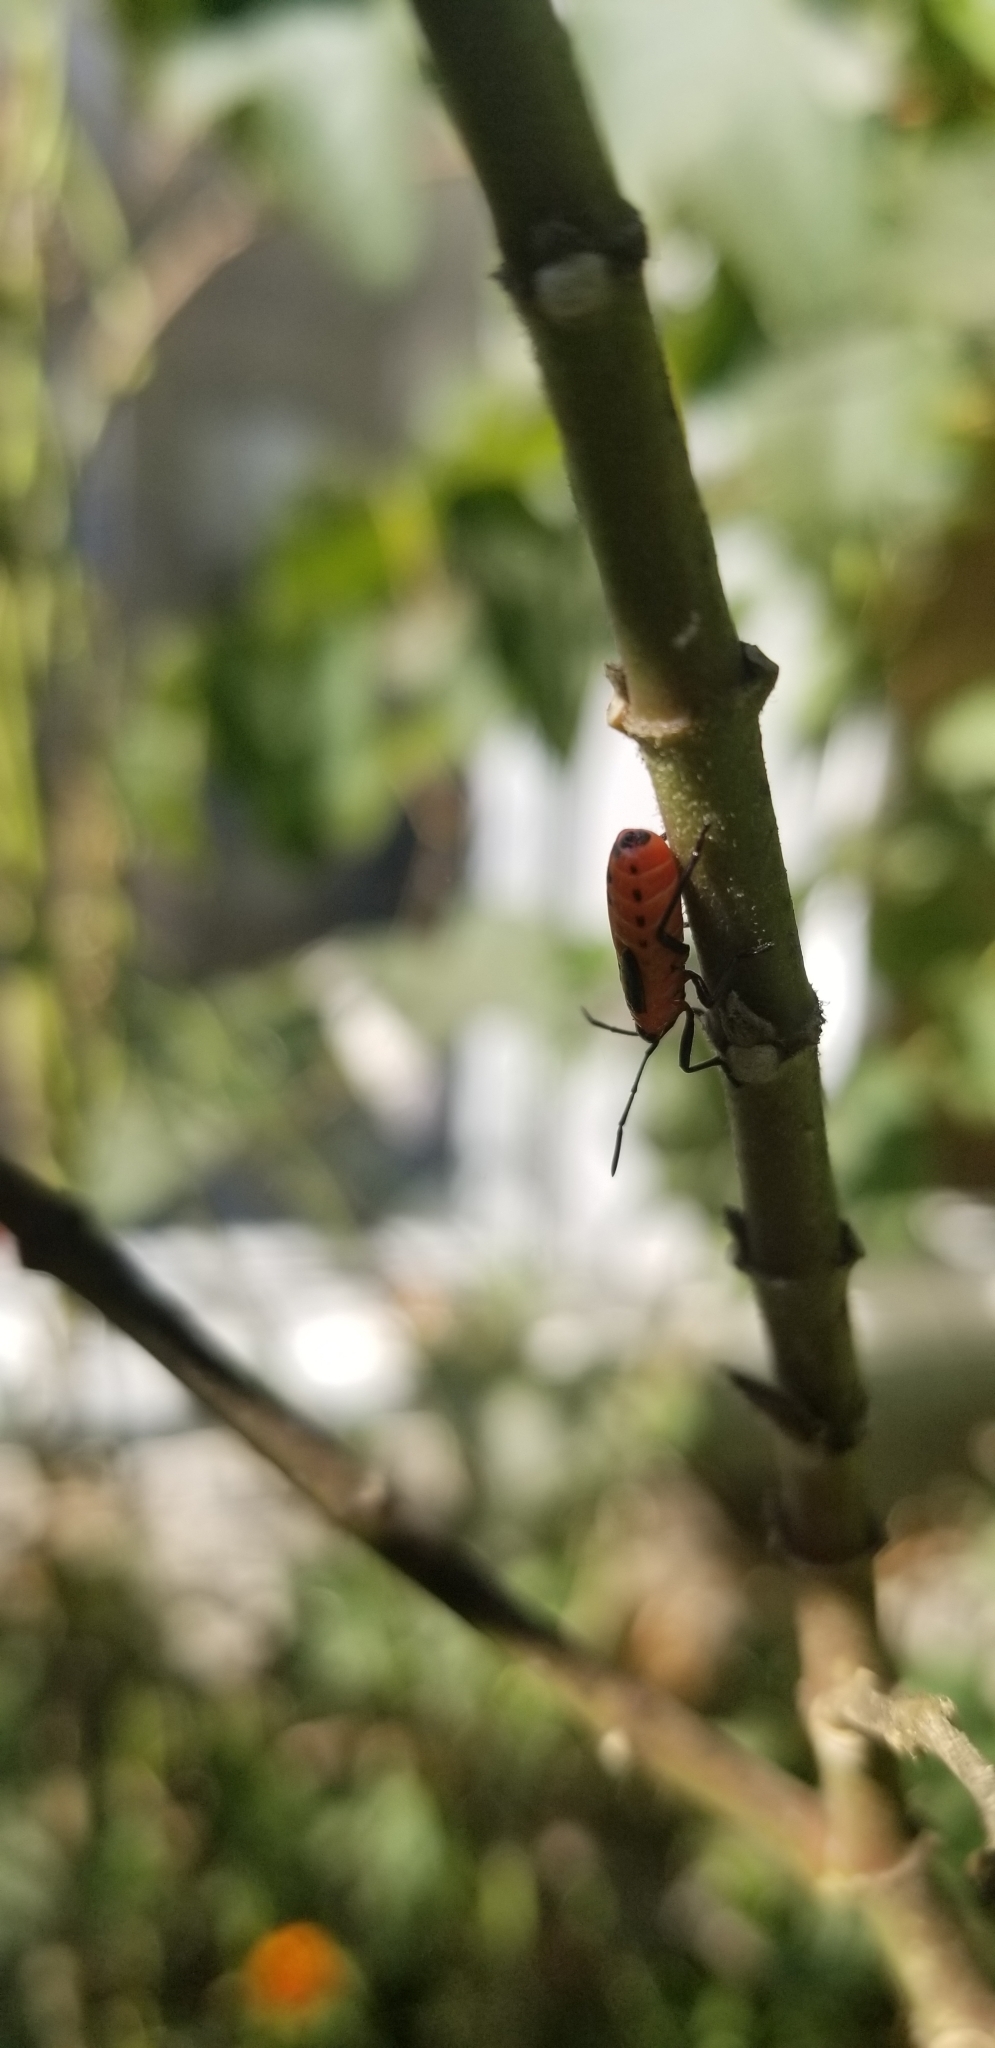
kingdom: Animalia
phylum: Arthropoda
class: Insecta
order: Hemiptera
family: Lygaeidae
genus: Oncopeltus
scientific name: Oncopeltus fasciatus
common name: Large milkweed bug
